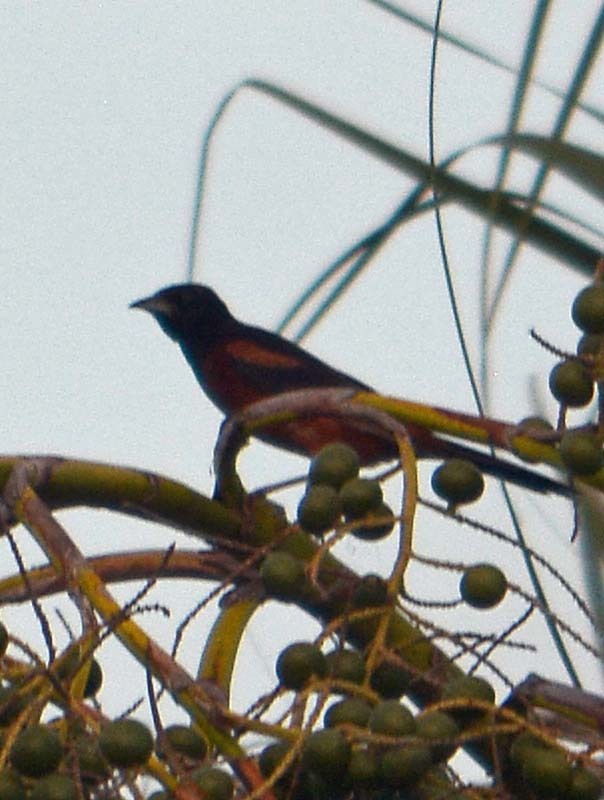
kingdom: Animalia
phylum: Chordata
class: Aves
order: Passeriformes
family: Icteridae
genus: Icterus
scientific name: Icterus spurius
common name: Orchard oriole
